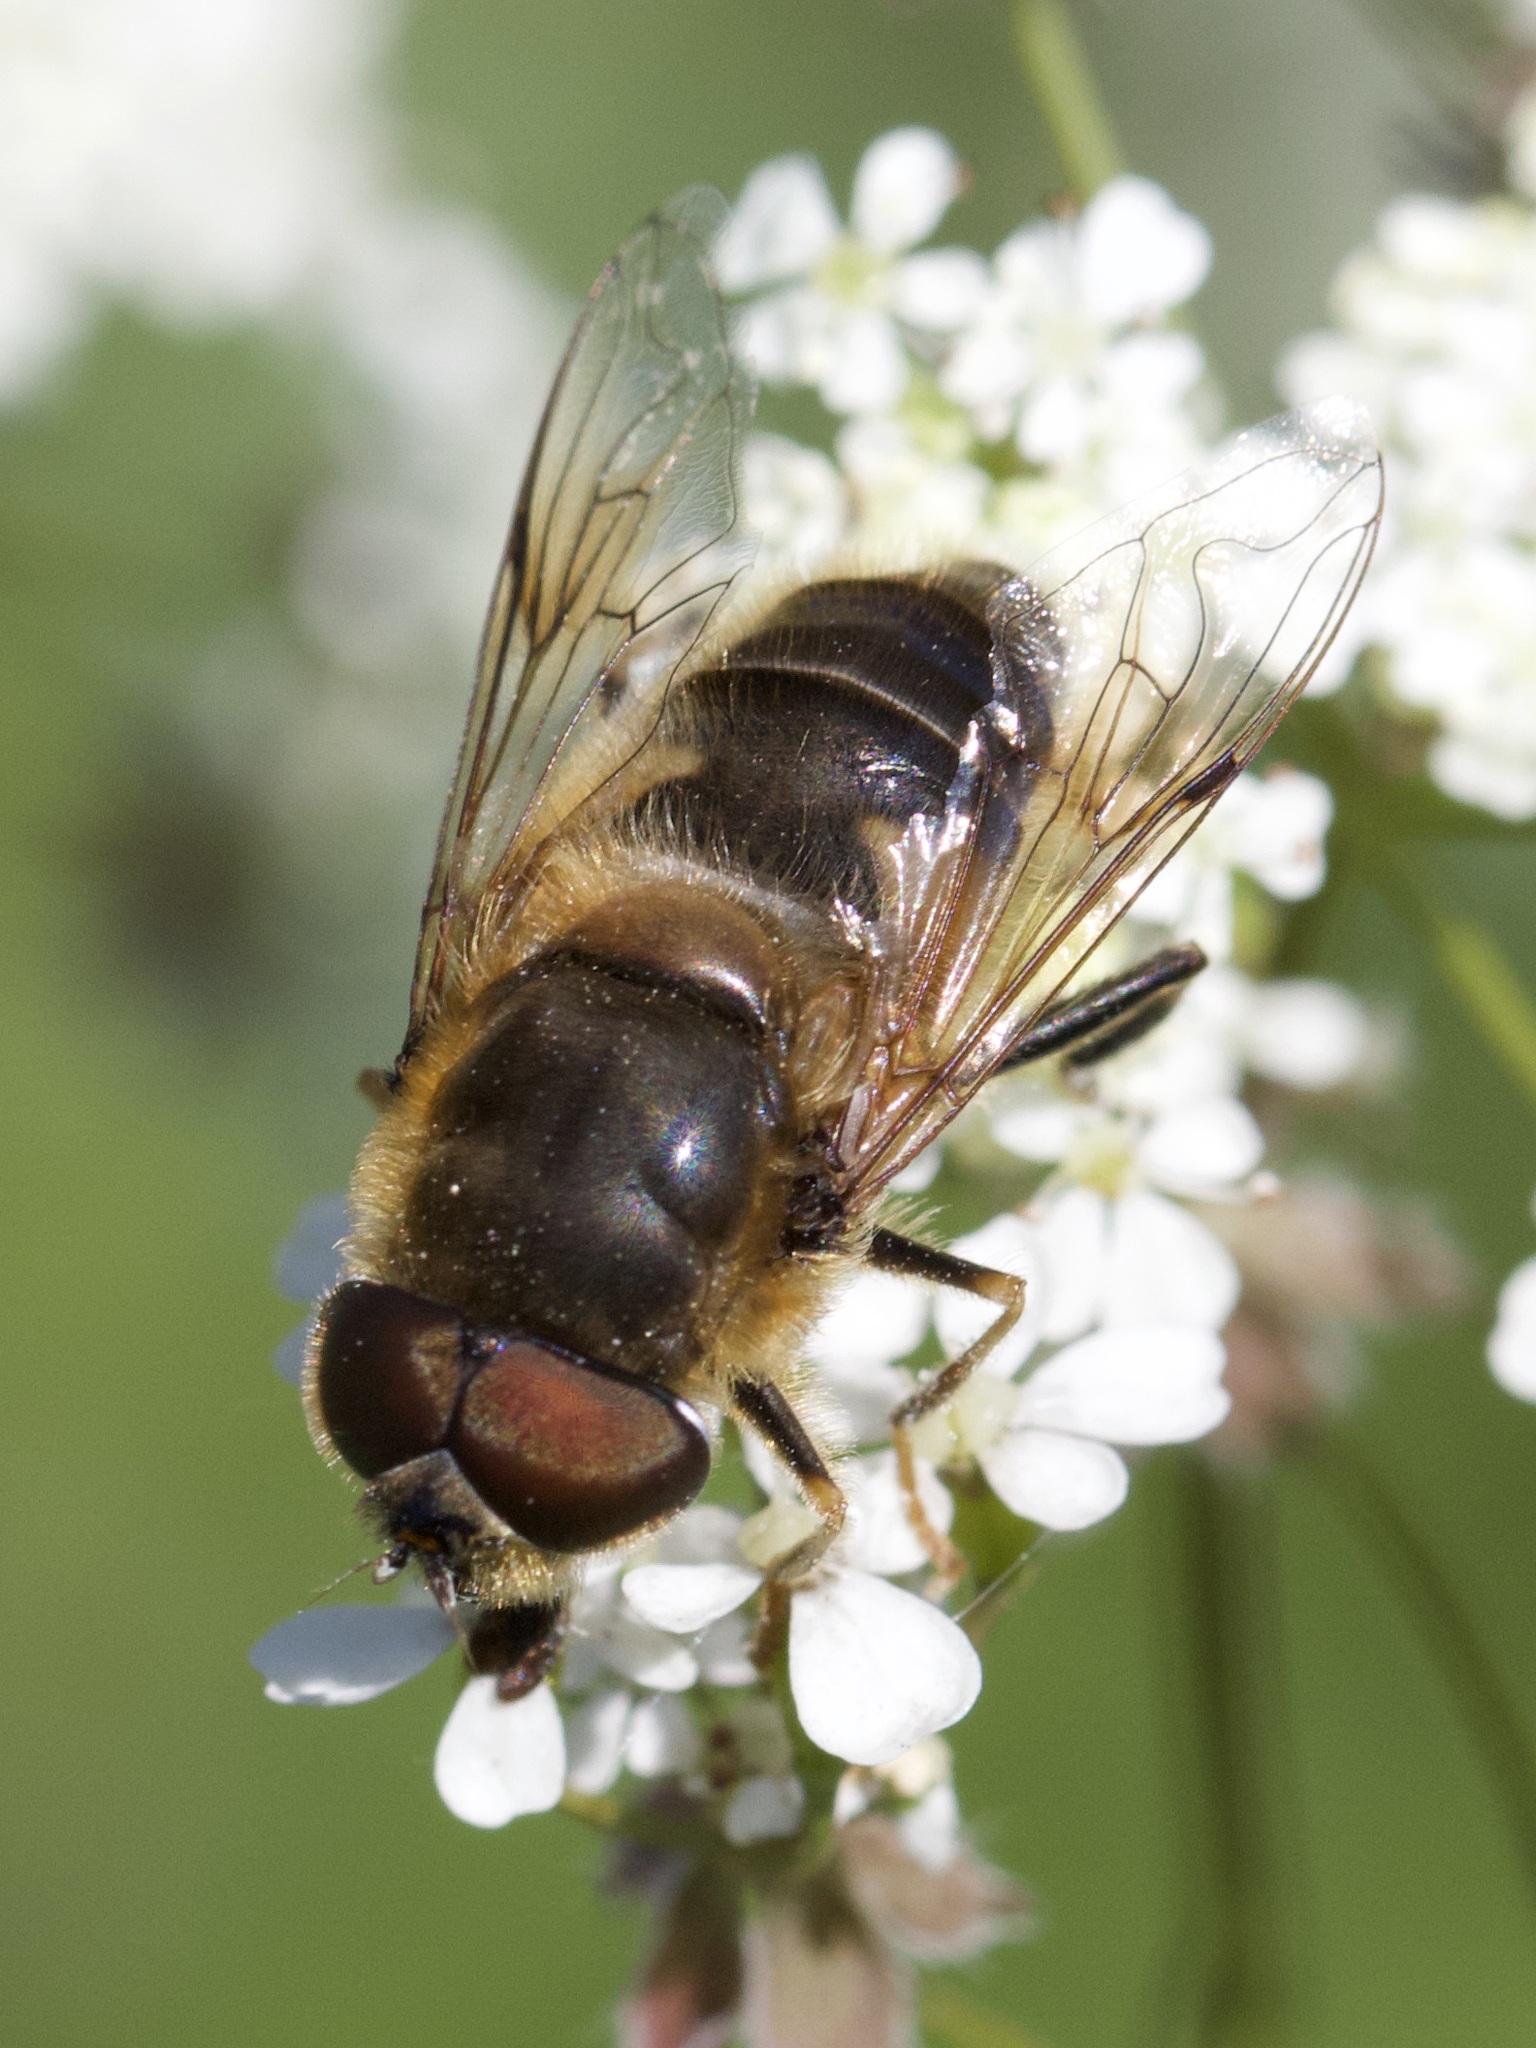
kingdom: Animalia
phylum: Arthropoda
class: Insecta
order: Diptera
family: Syrphidae
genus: Eristalis
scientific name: Eristalis pertinax
